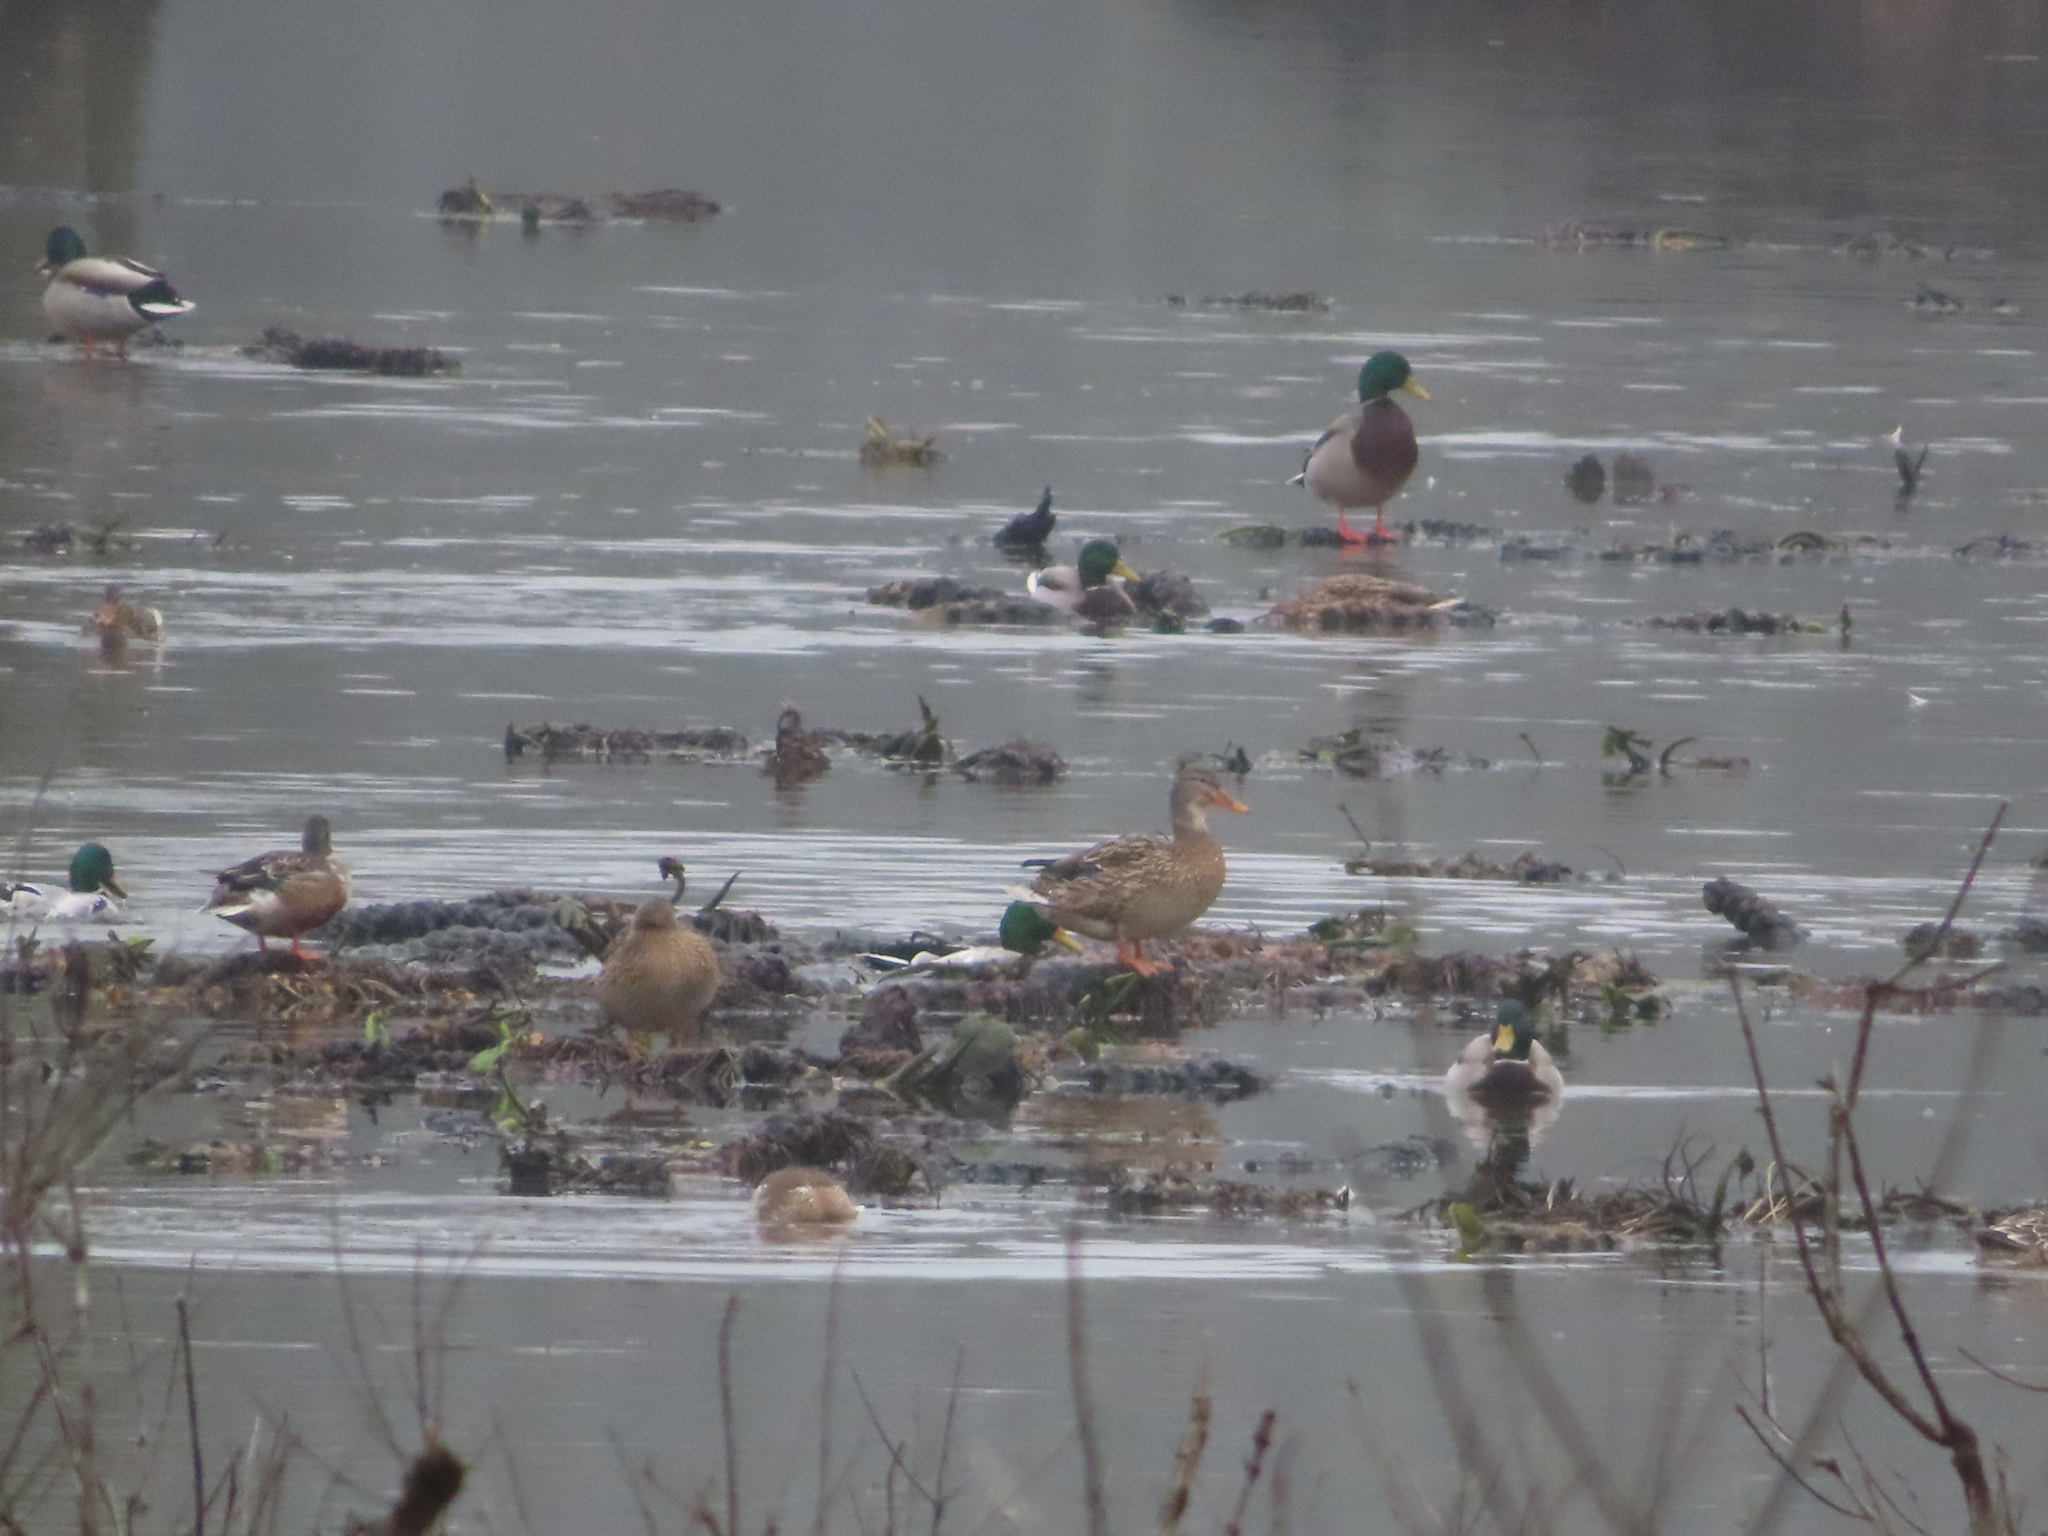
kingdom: Animalia
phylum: Chordata
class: Aves
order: Anseriformes
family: Anatidae
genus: Anas
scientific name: Anas platyrhynchos
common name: Mallard
